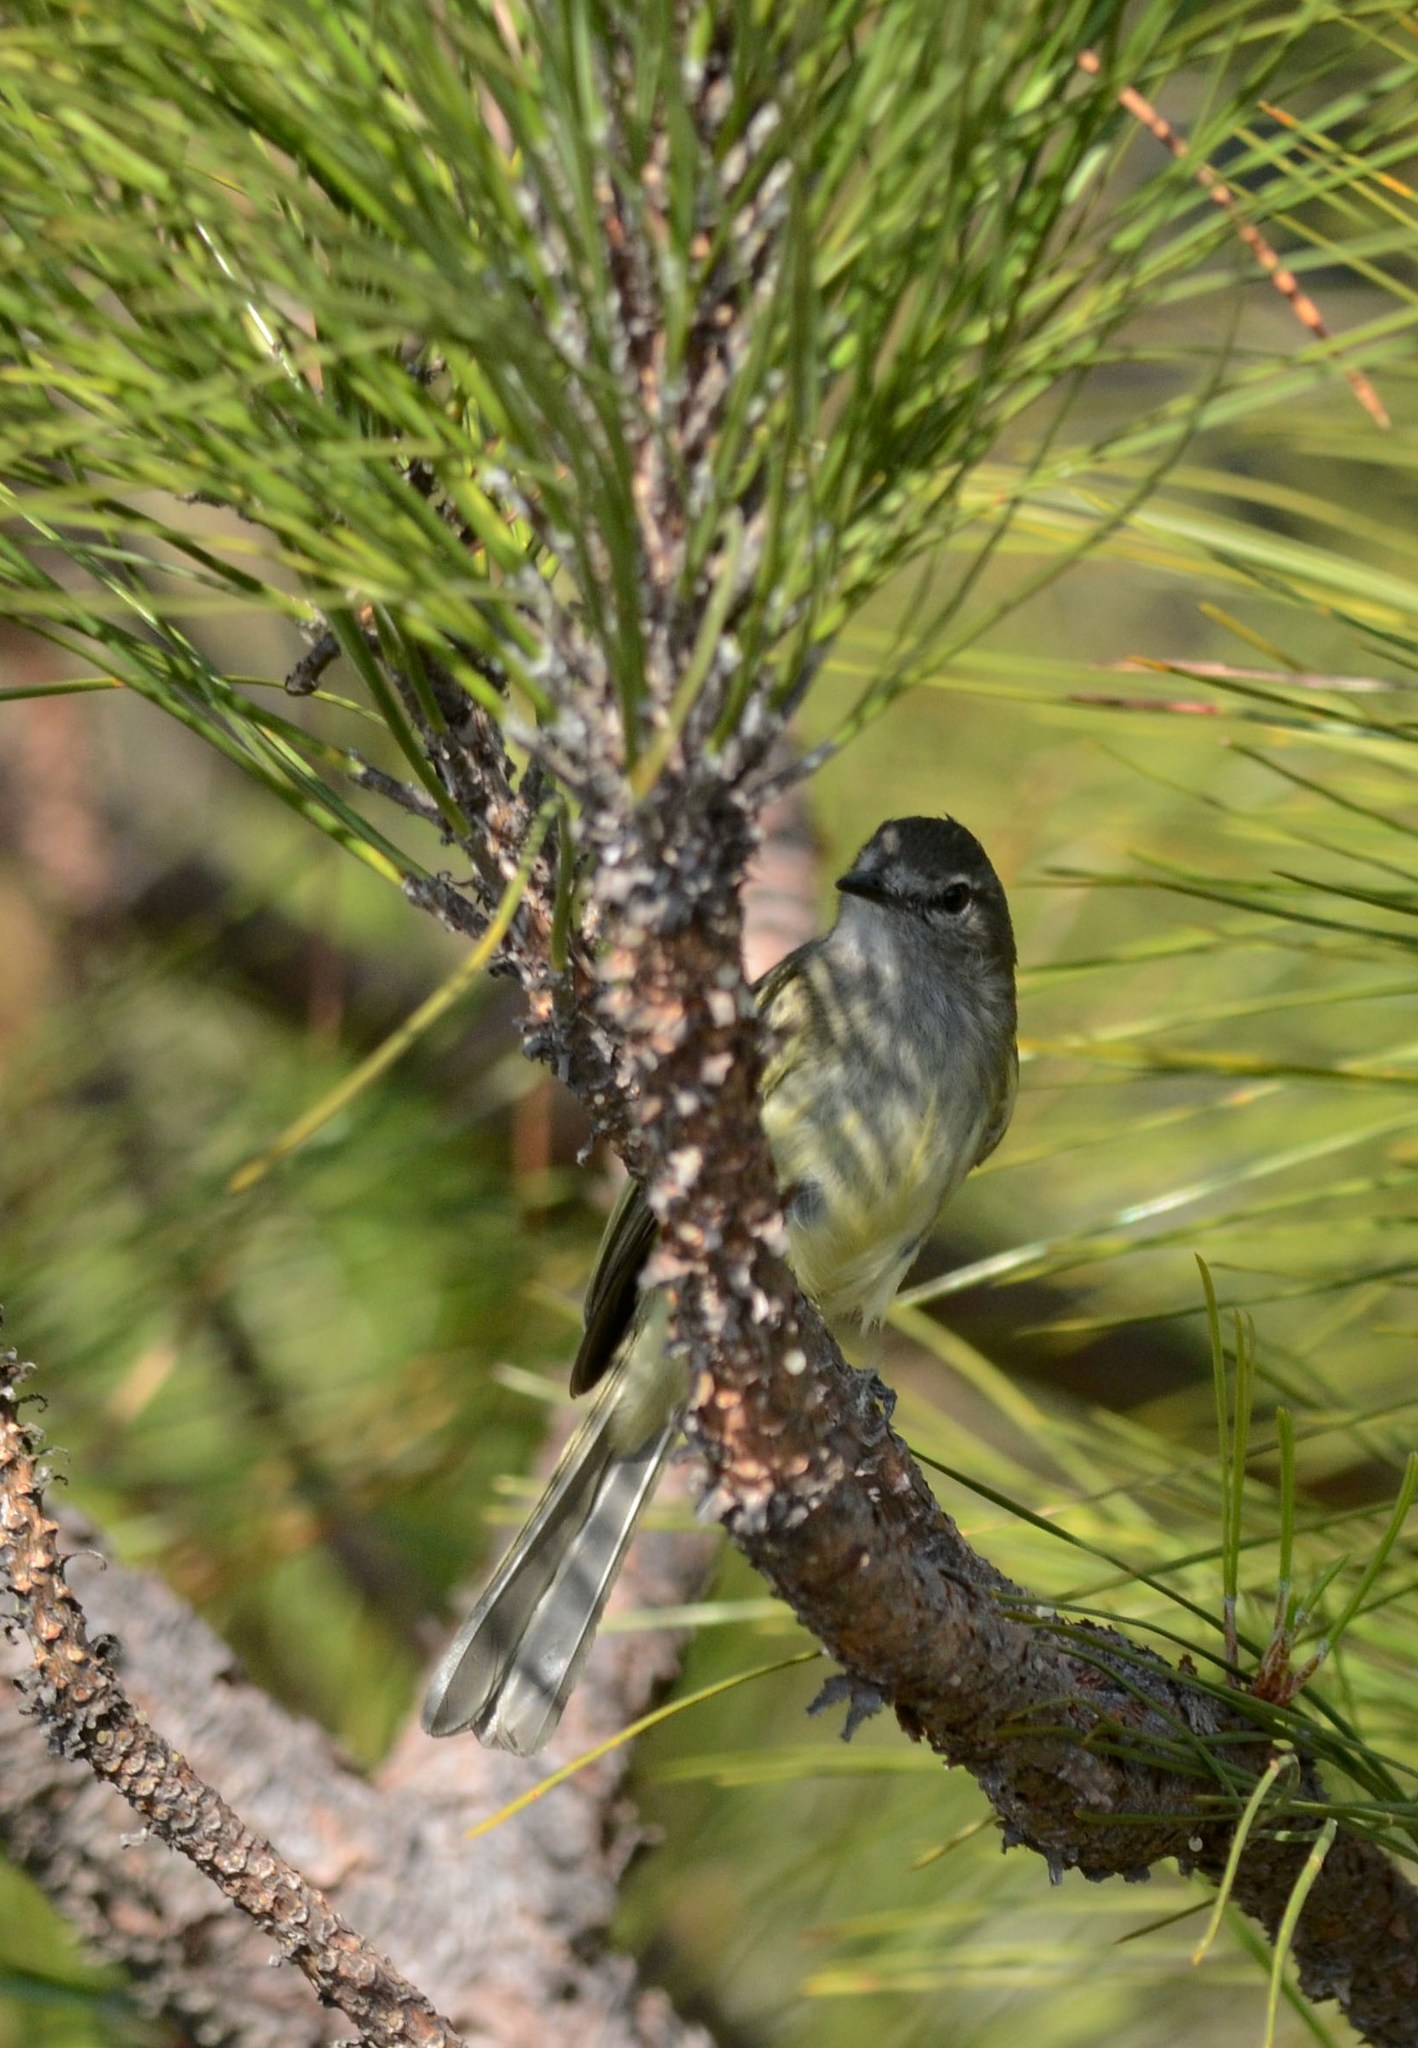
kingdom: Animalia
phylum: Chordata
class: Aves
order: Passeriformes
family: Tyrannidae
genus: Myiopagis
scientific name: Myiopagis viridicata
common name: Greenish elaenia
